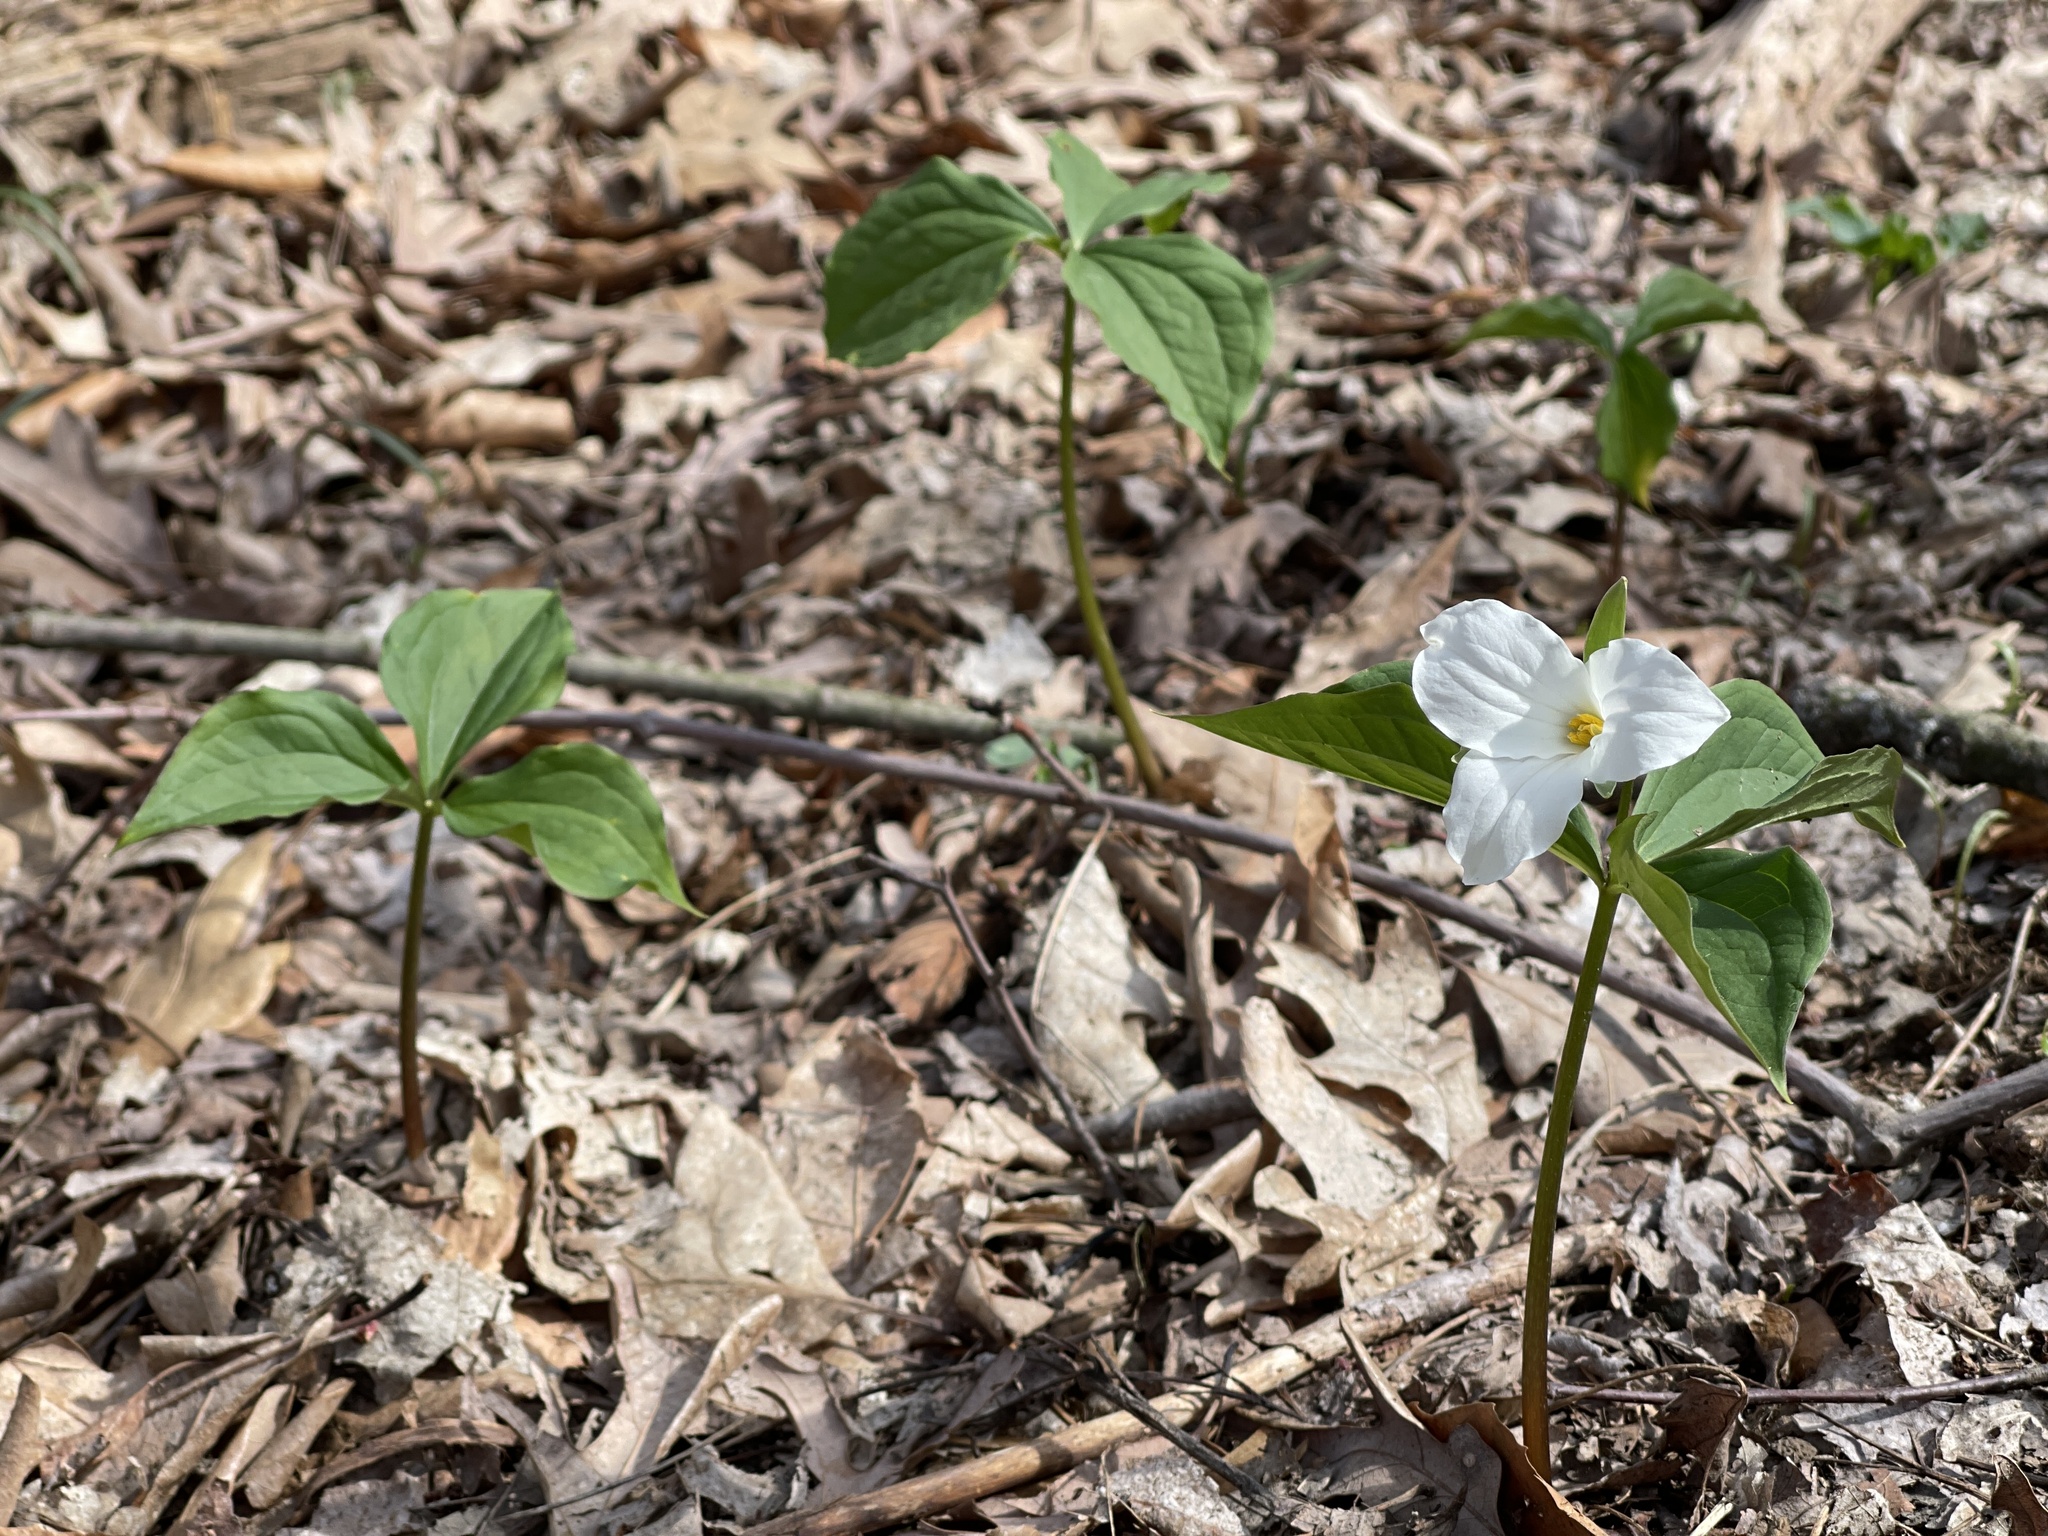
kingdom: Plantae
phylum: Tracheophyta
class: Liliopsida
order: Liliales
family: Melanthiaceae
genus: Trillium
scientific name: Trillium grandiflorum
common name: Great white trillium
